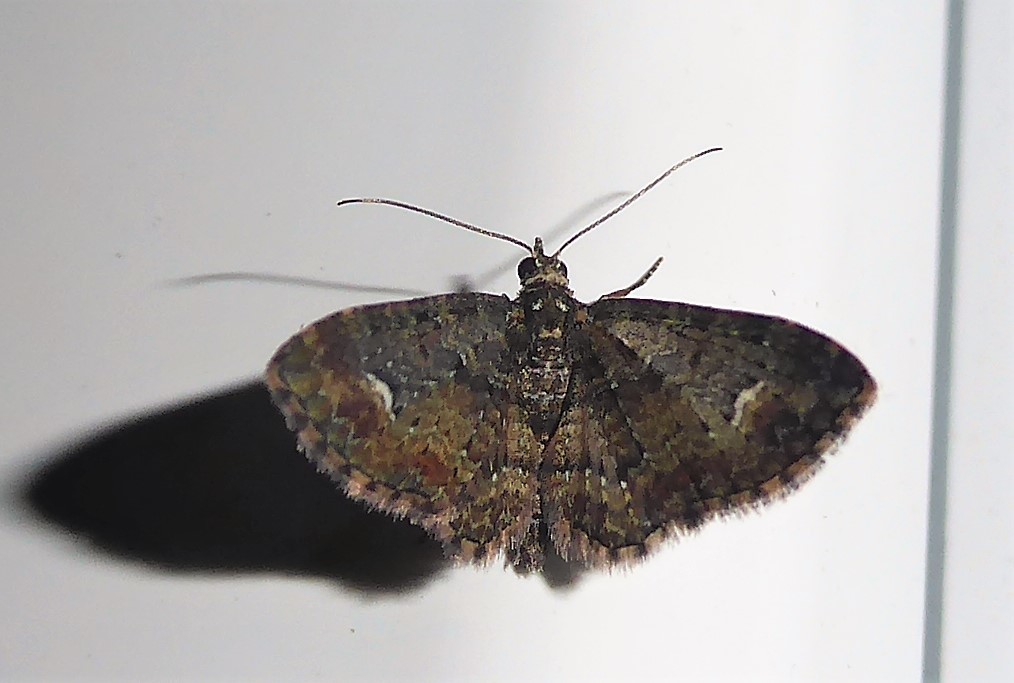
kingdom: Animalia
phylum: Arthropoda
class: Insecta
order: Lepidoptera
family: Geometridae
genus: Pasiphilodes
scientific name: Pasiphilodes testulata
